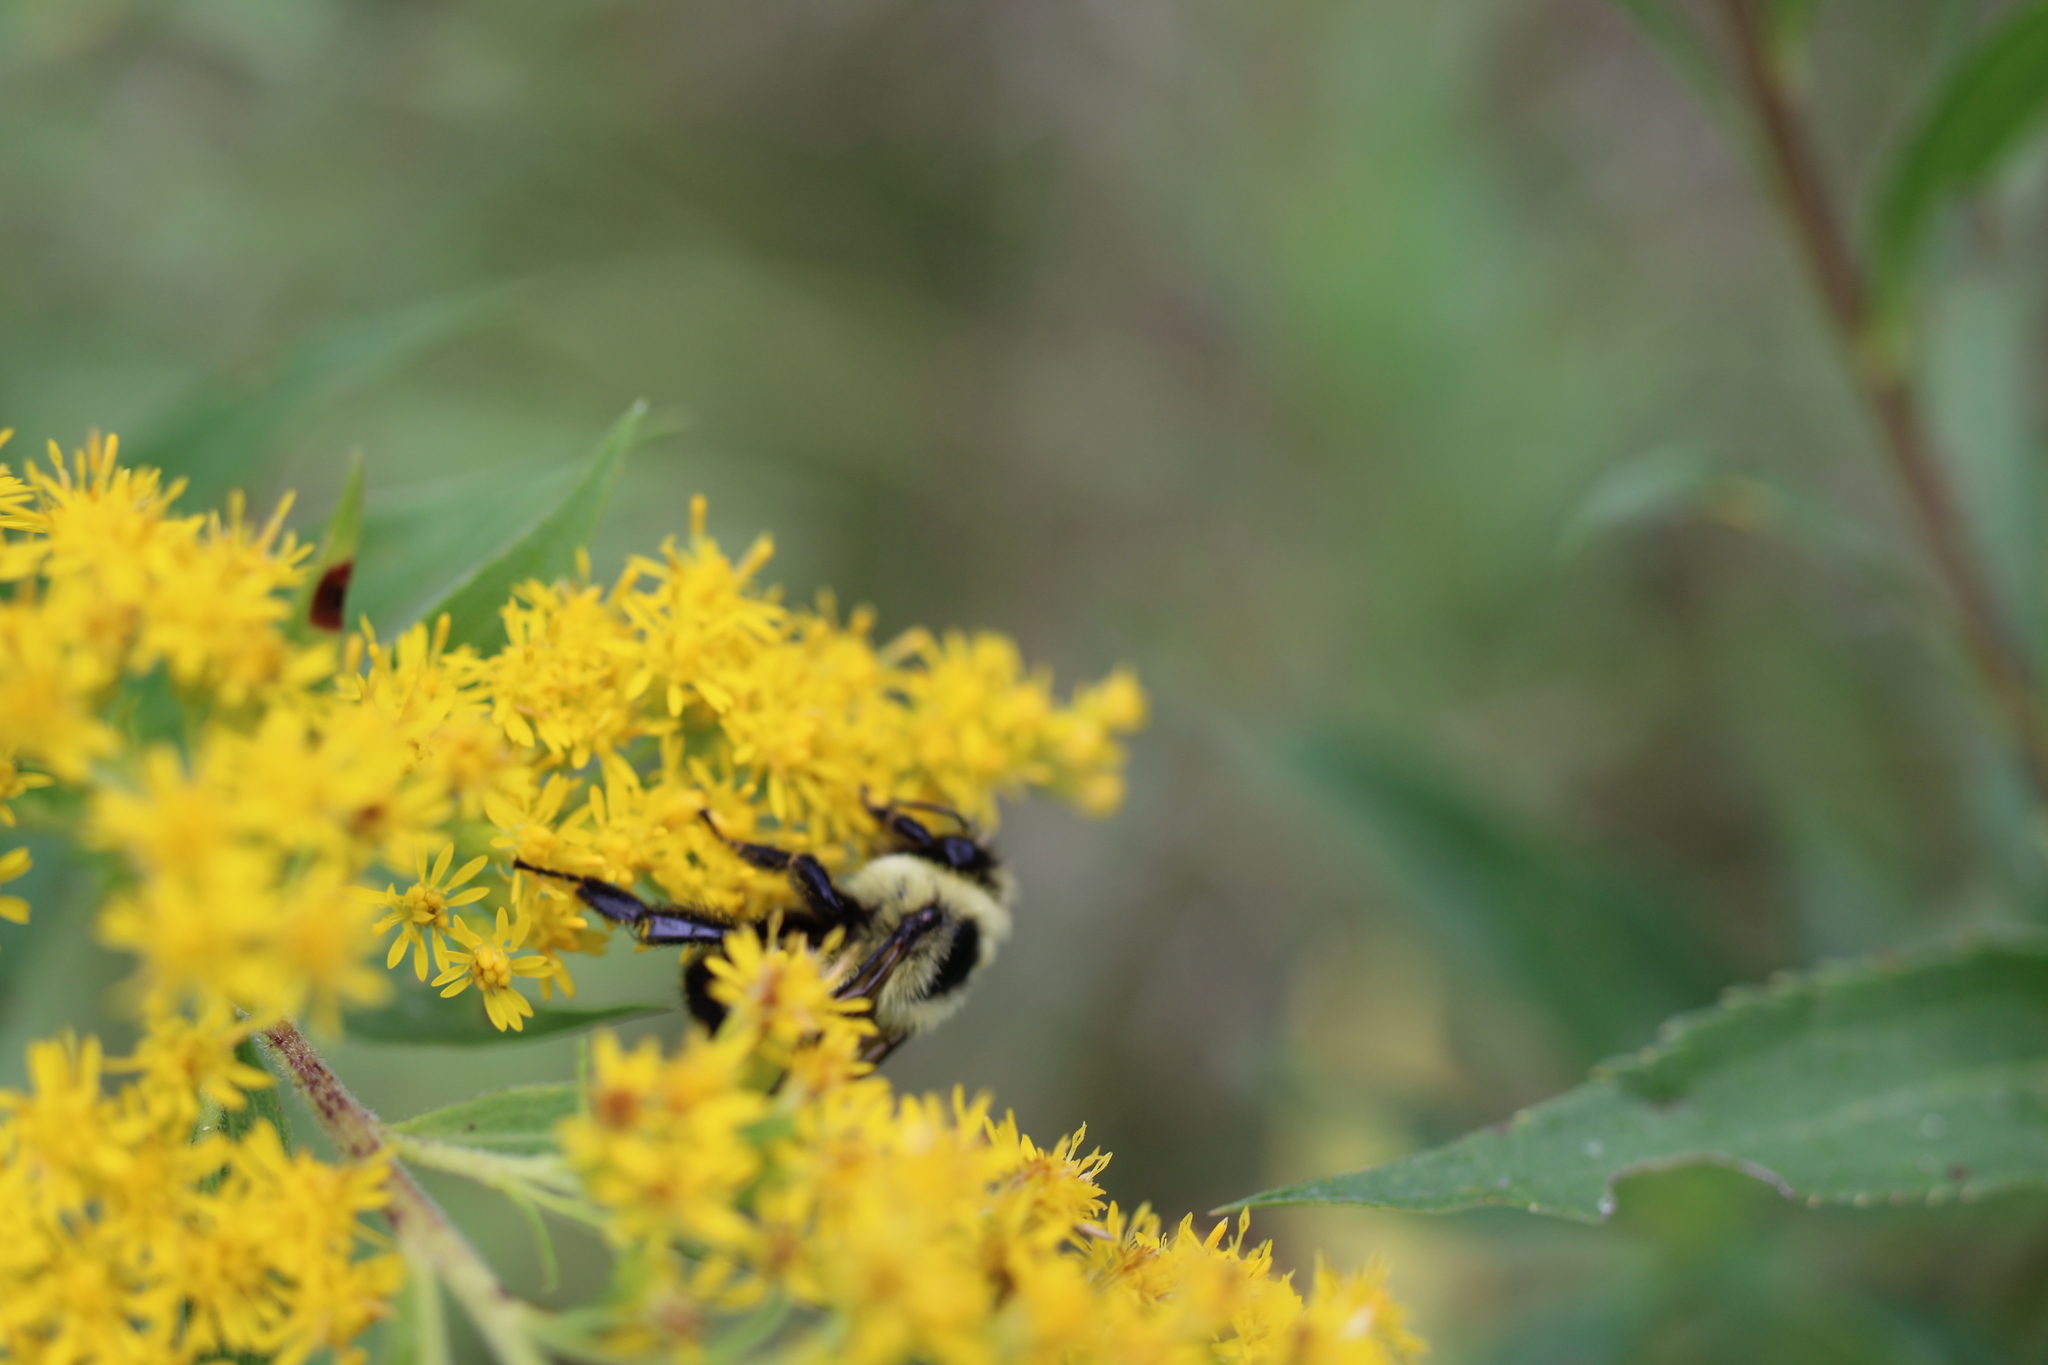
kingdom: Animalia
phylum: Arthropoda
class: Insecta
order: Hymenoptera
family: Apidae
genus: Bombus
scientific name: Bombus impatiens
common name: Common eastern bumble bee
